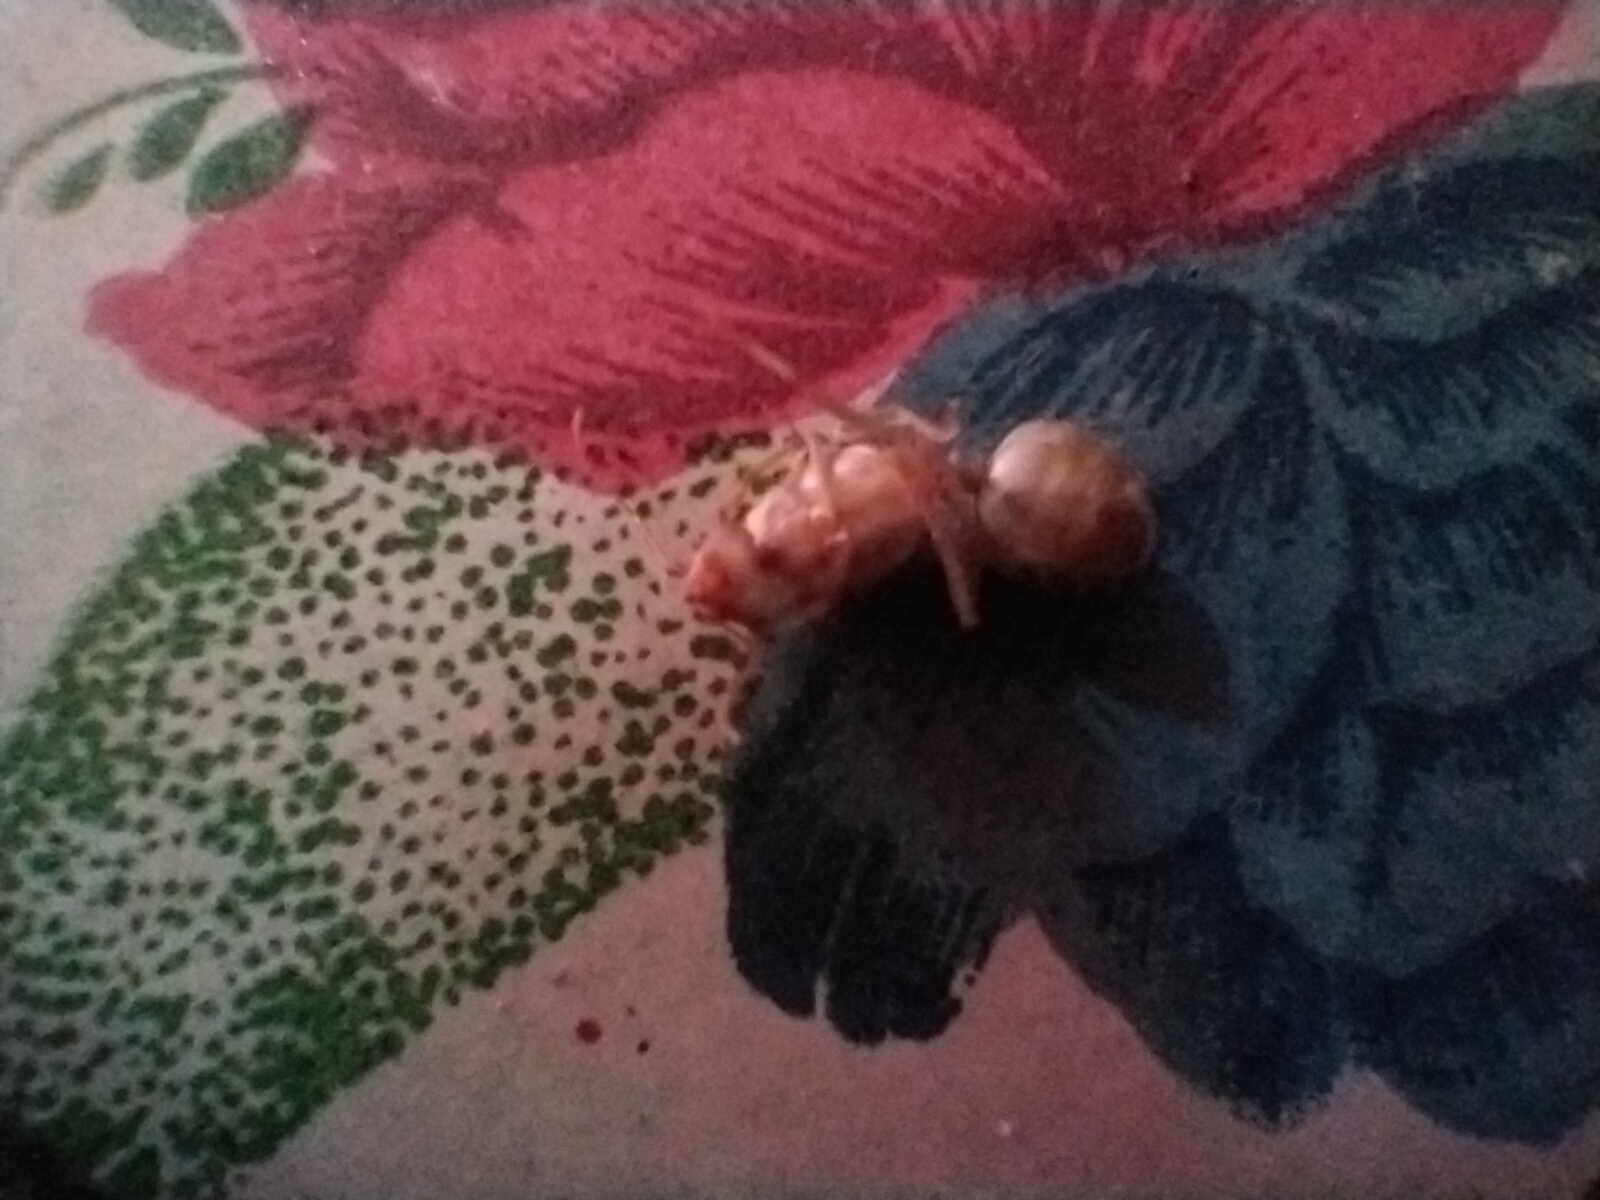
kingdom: Animalia
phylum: Arthropoda
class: Insecta
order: Hymenoptera
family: Formicidae
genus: Oecophylla
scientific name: Oecophylla smaragdina
